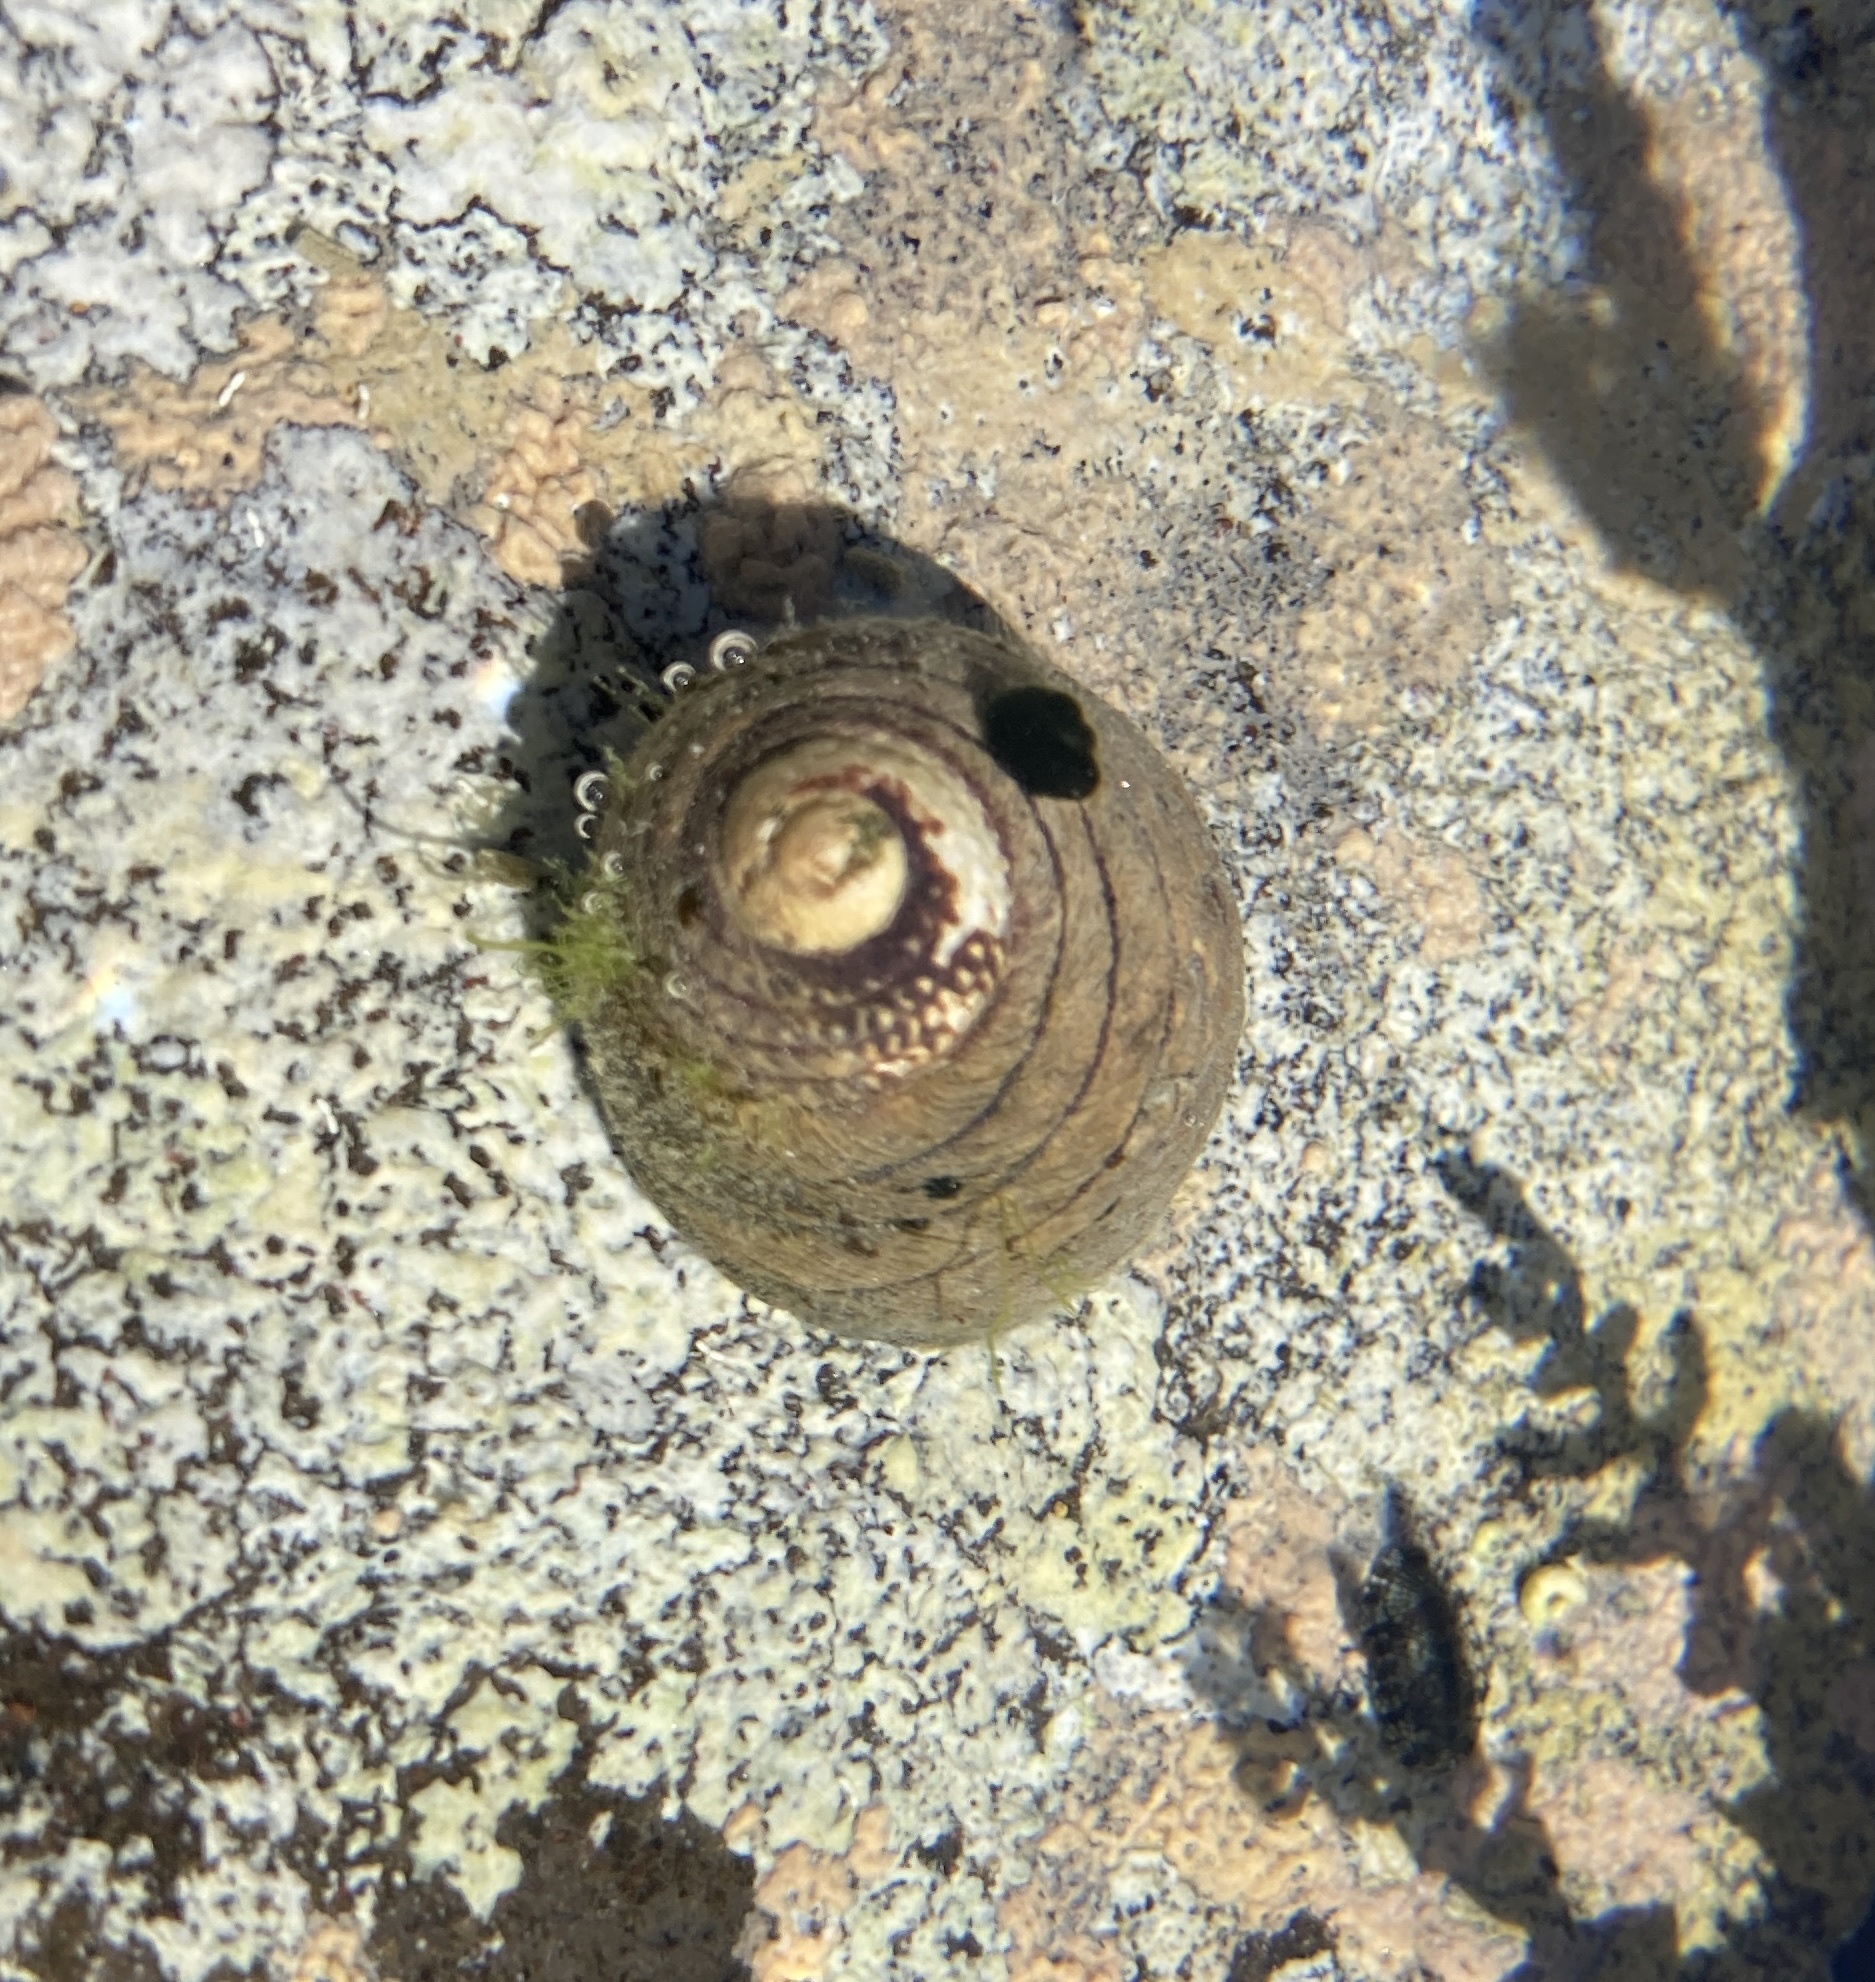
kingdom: Animalia
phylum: Mollusca
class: Gastropoda
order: Trochida
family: Trochidae
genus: Diloma
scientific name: Diloma aethiops
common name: Scorched monodont
